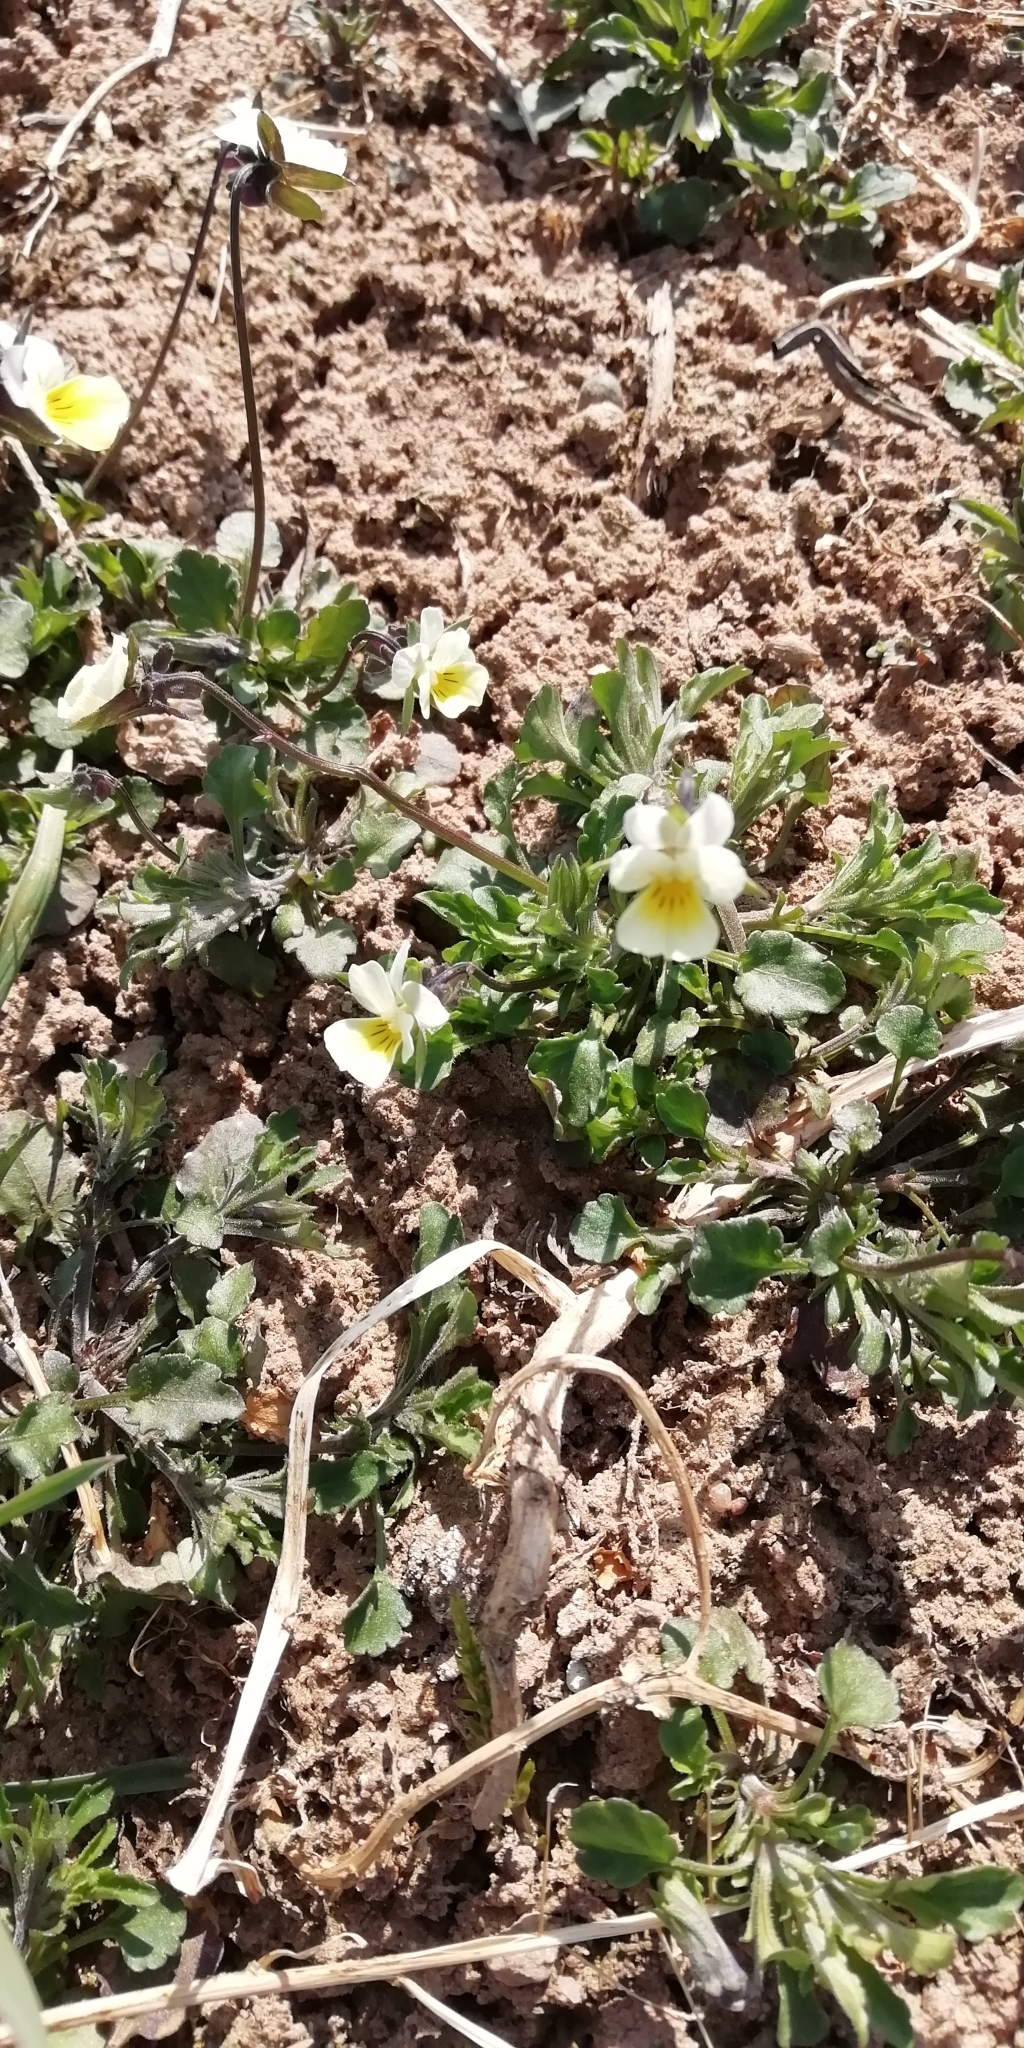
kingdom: Plantae
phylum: Tracheophyta
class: Magnoliopsida
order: Malpighiales
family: Violaceae
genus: Viola
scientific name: Viola arvensis
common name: Field pansy
